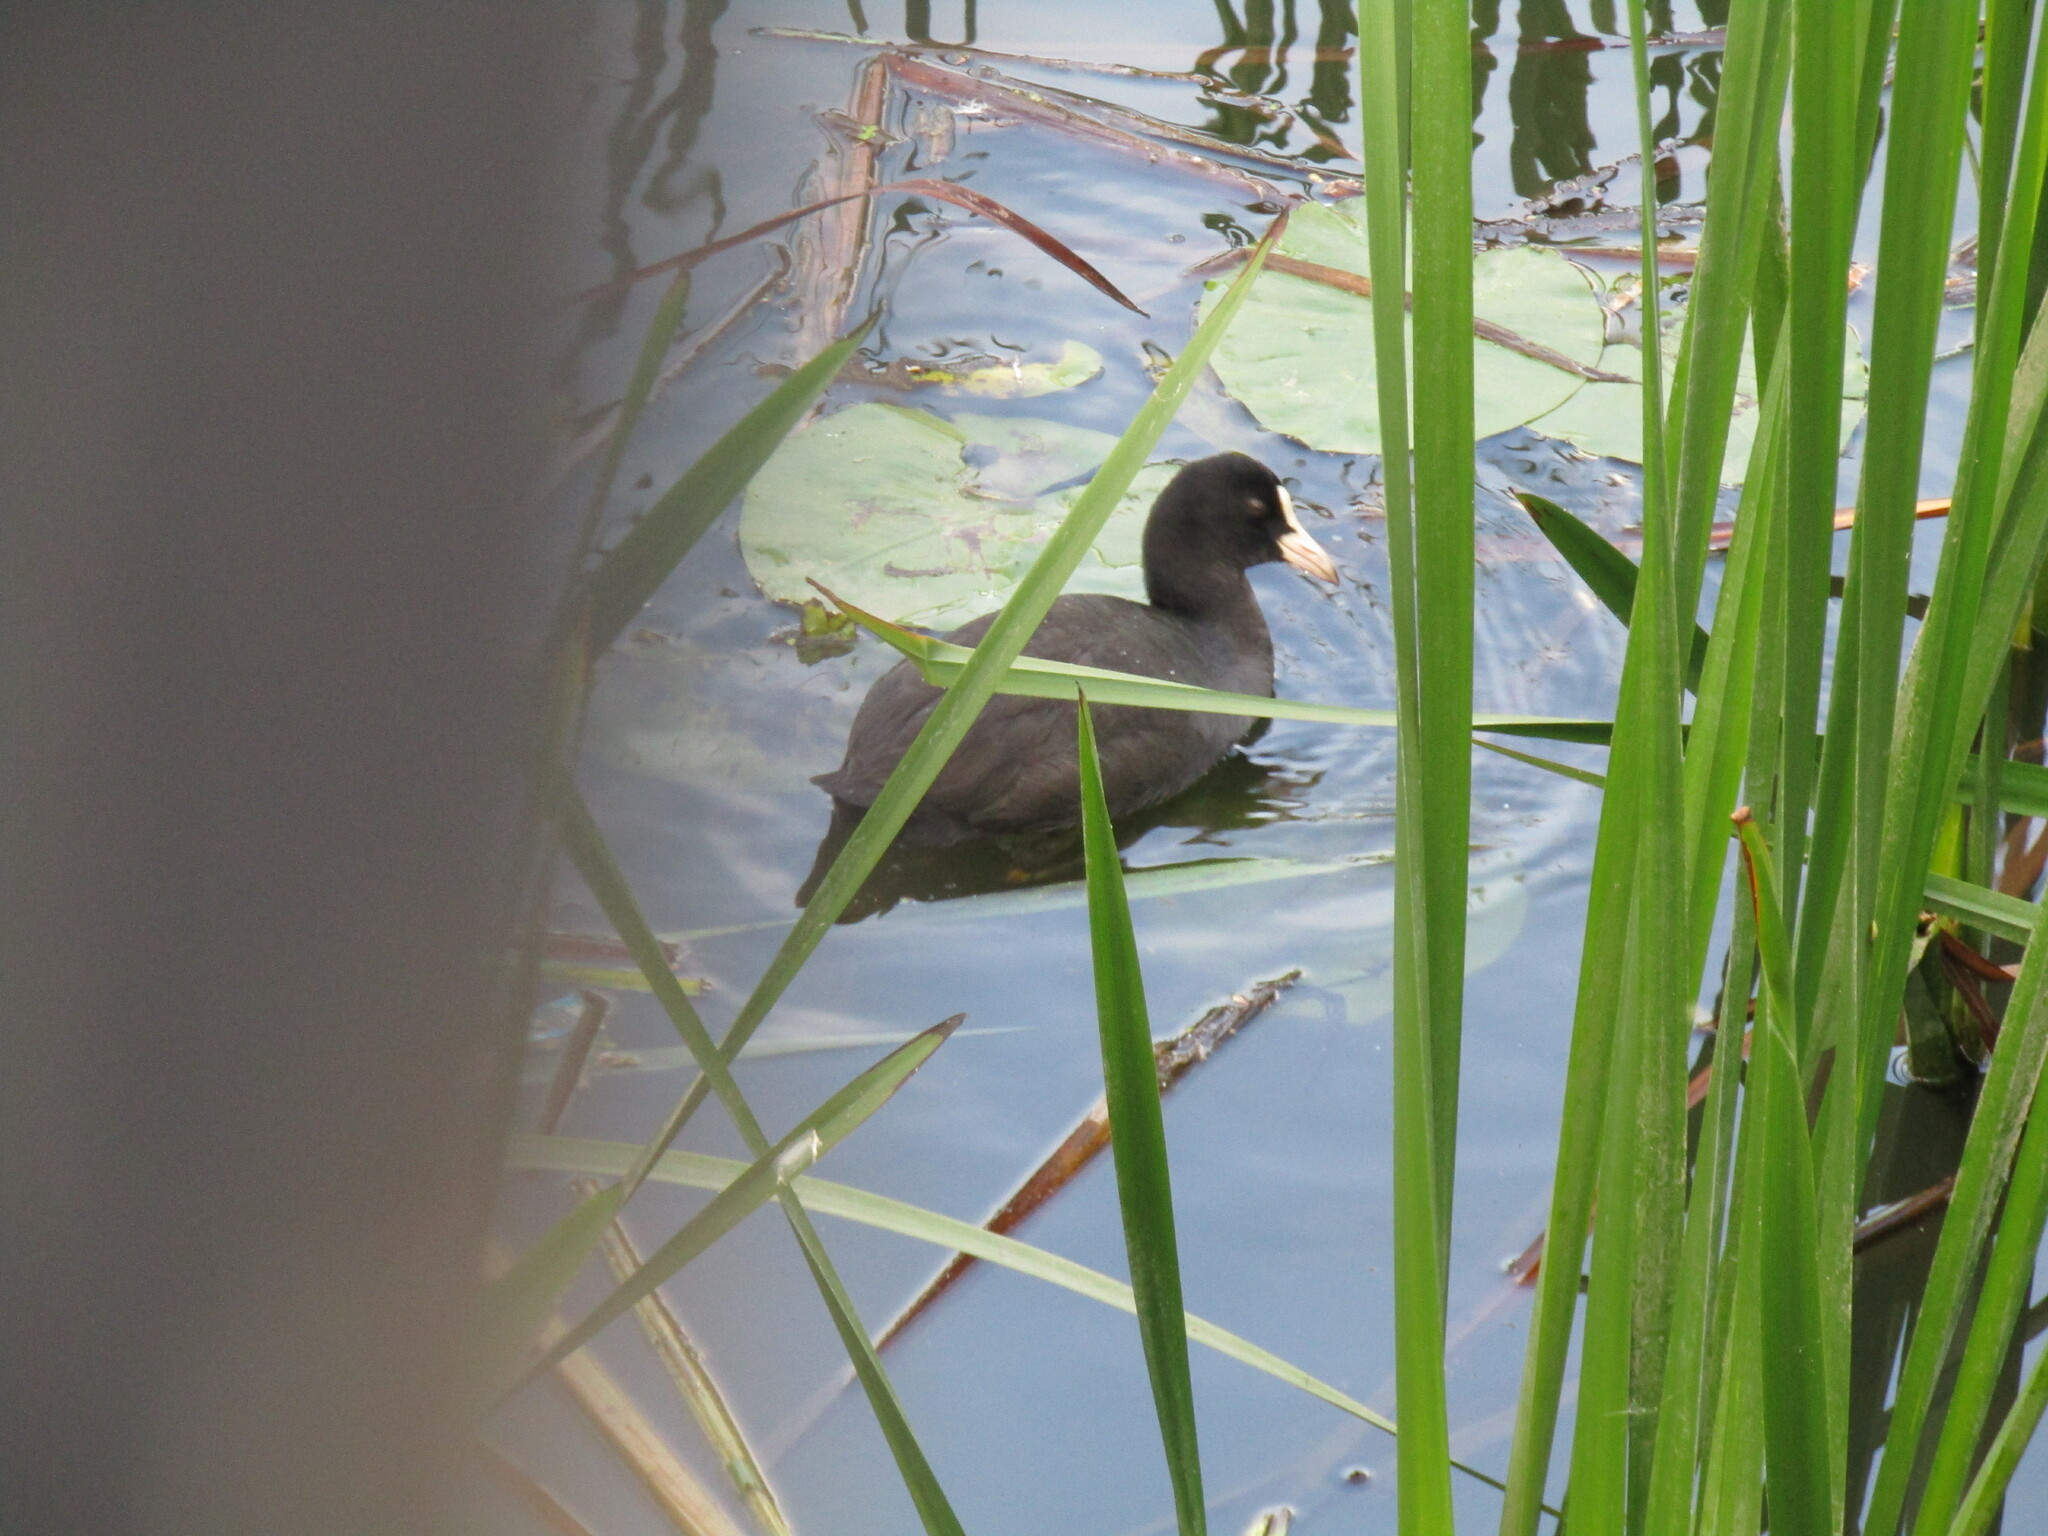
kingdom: Animalia
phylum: Chordata
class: Aves
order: Gruiformes
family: Rallidae
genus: Fulica
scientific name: Fulica atra
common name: Eurasian coot
